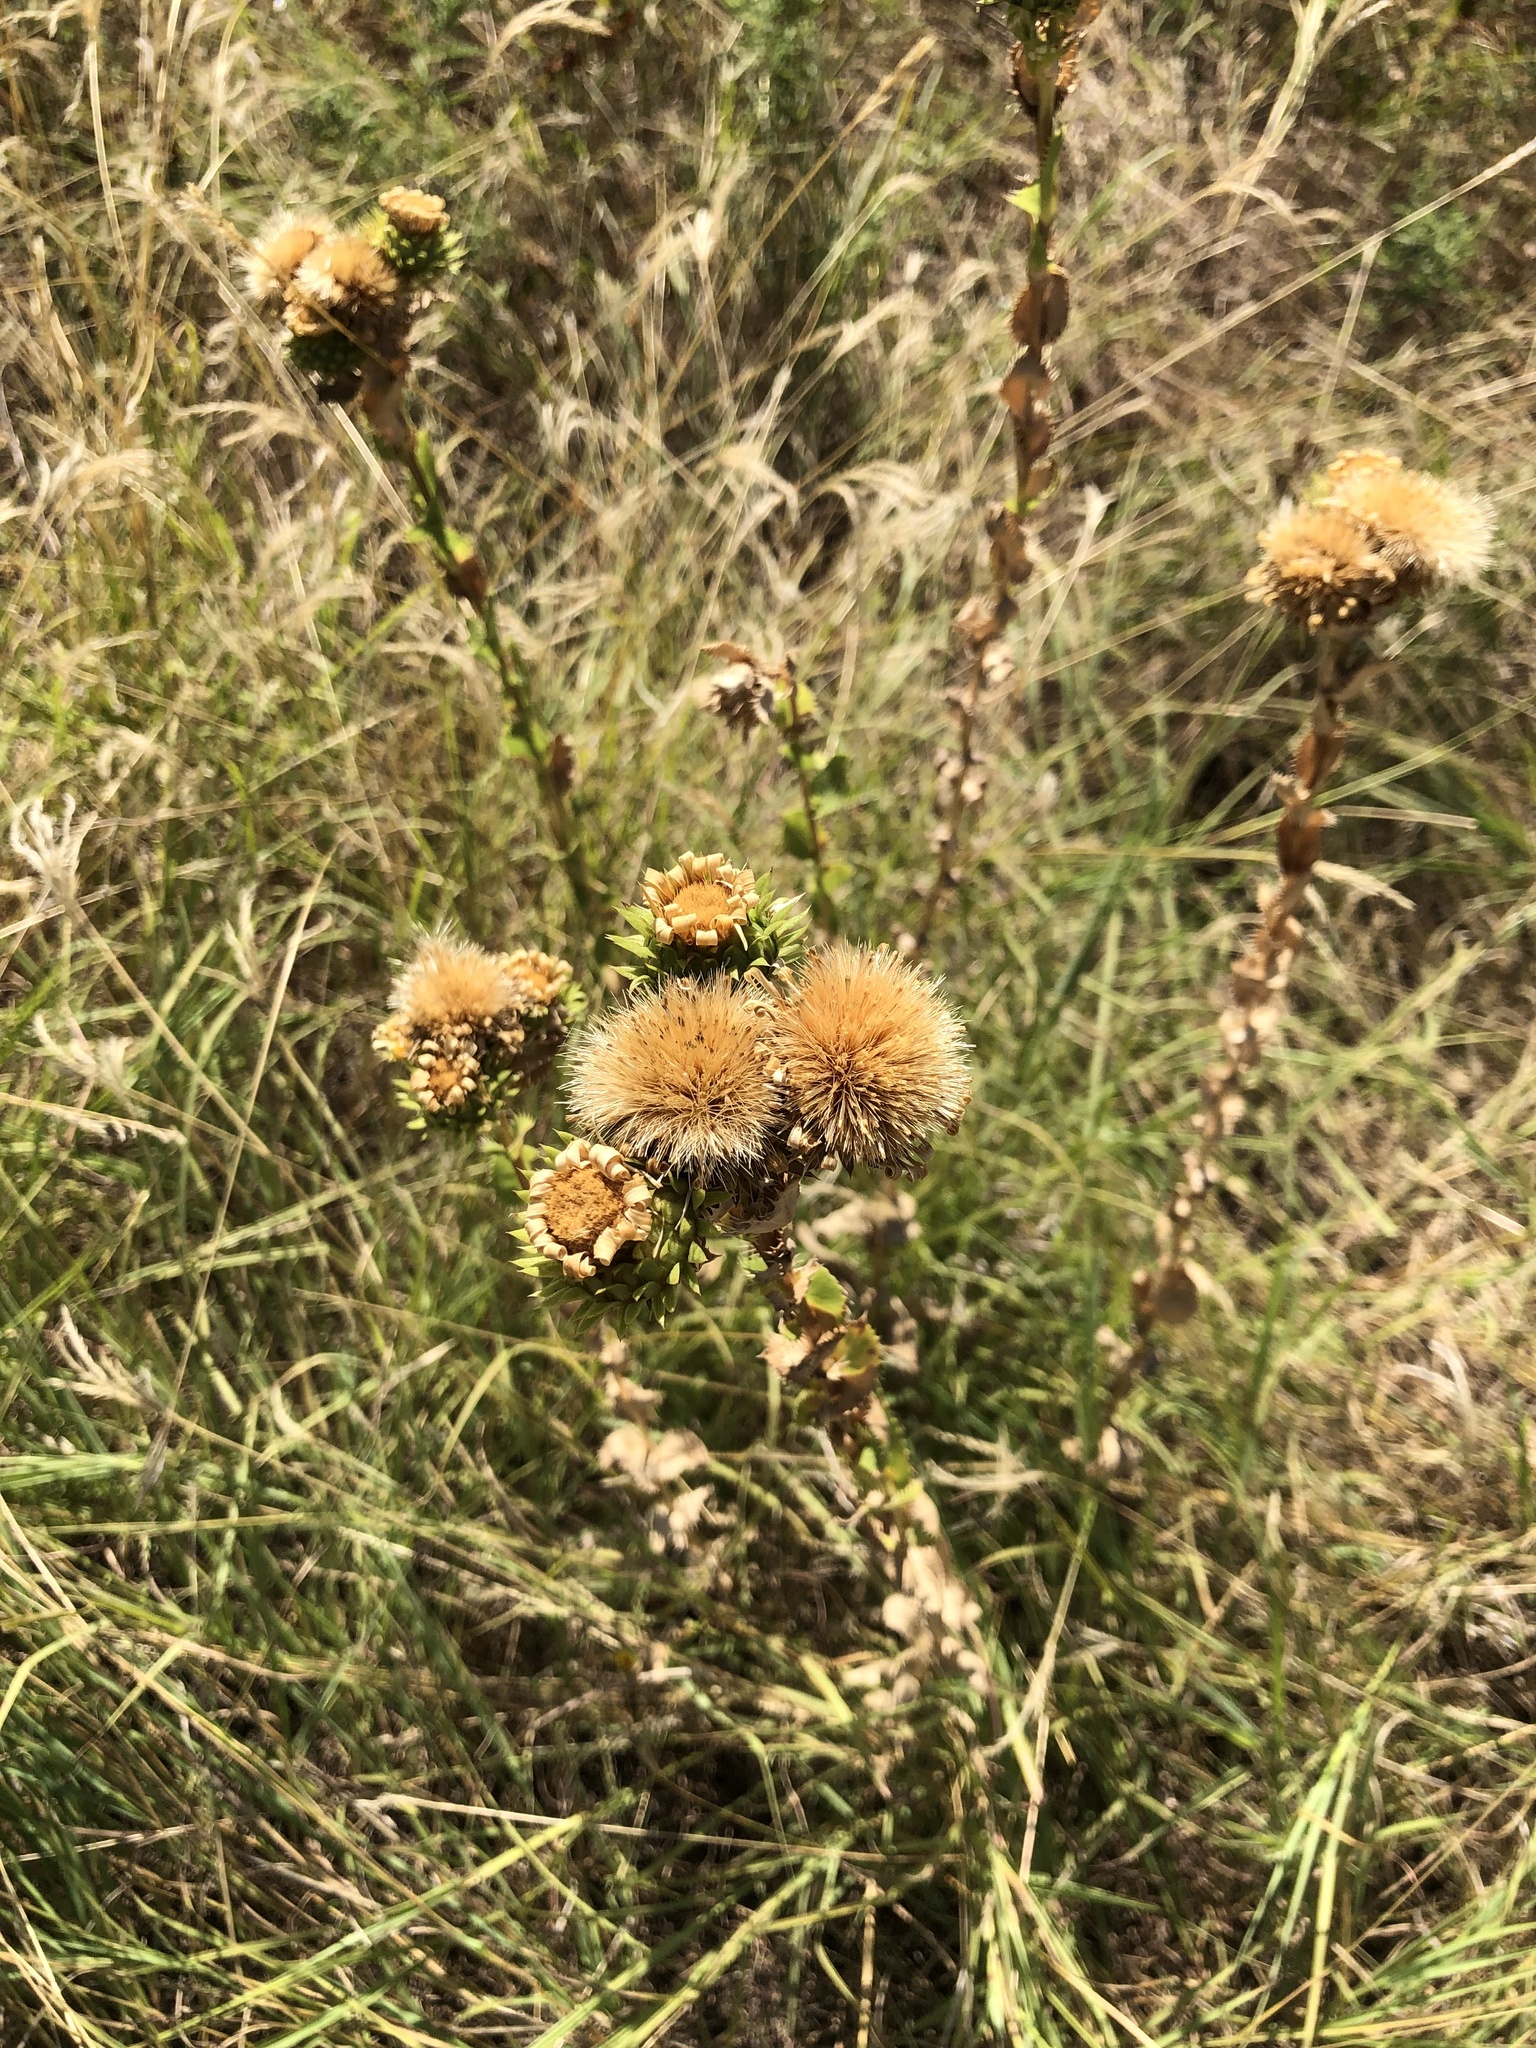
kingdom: Plantae
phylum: Tracheophyta
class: Magnoliopsida
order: Asterales
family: Asteraceae
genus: Grindelia
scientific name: Grindelia ciliata
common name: Goldenweed
